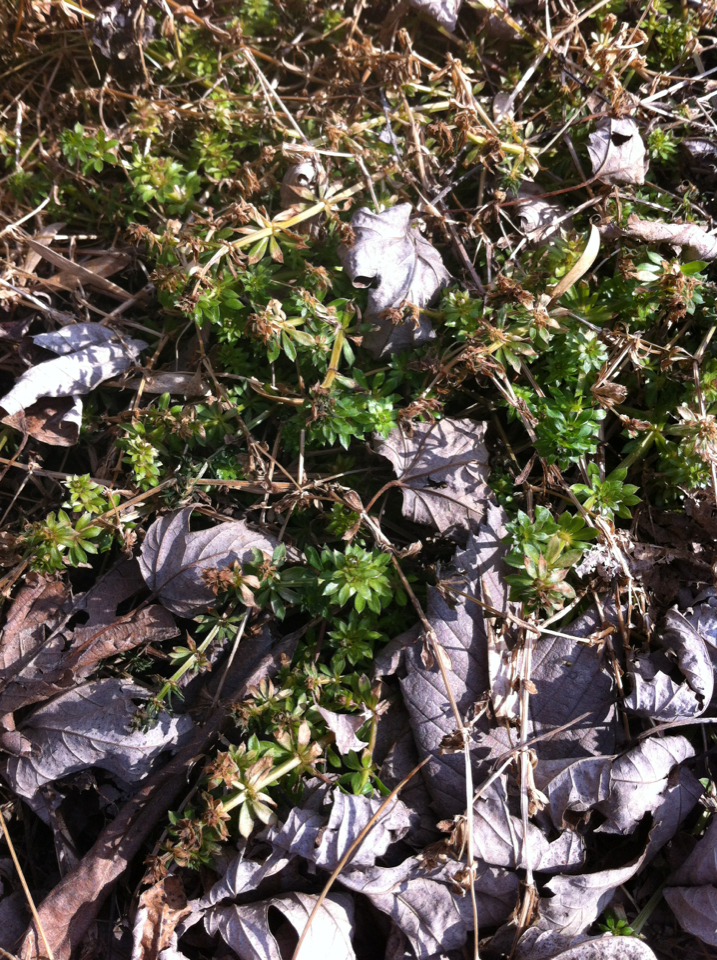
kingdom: Plantae
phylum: Tracheophyta
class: Magnoliopsida
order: Gentianales
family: Rubiaceae
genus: Galium
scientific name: Galium mollugo
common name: Hedge bedstraw
